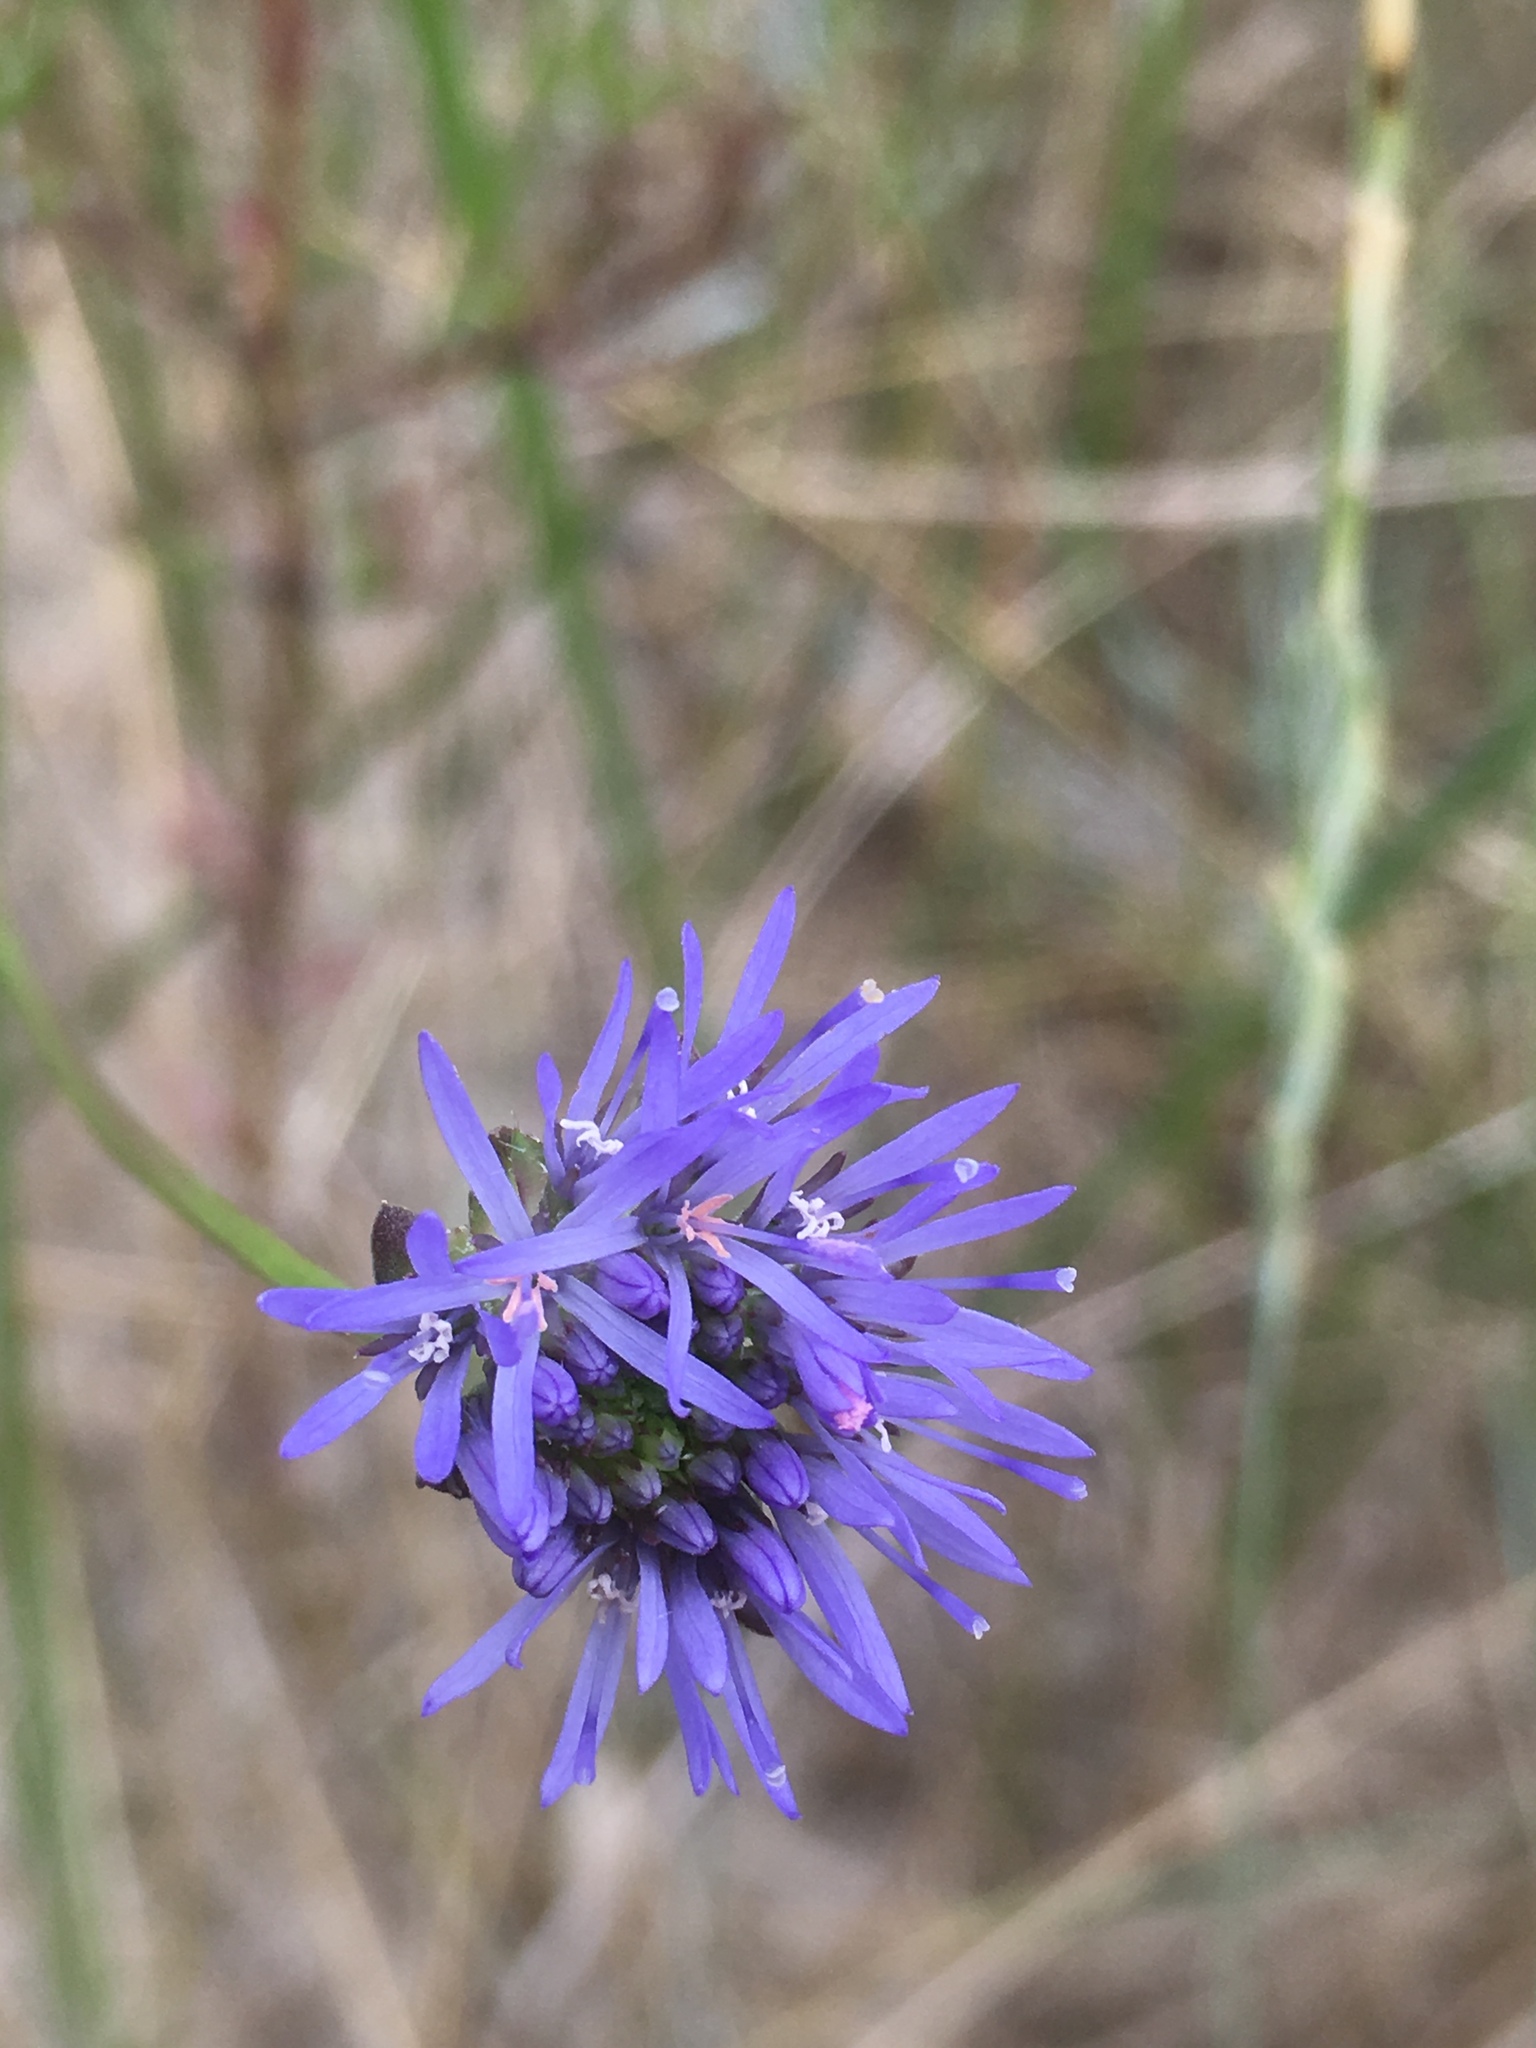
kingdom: Plantae
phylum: Tracheophyta
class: Magnoliopsida
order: Asterales
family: Campanulaceae
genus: Jasione
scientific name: Jasione montana
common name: Sheep's-bit
